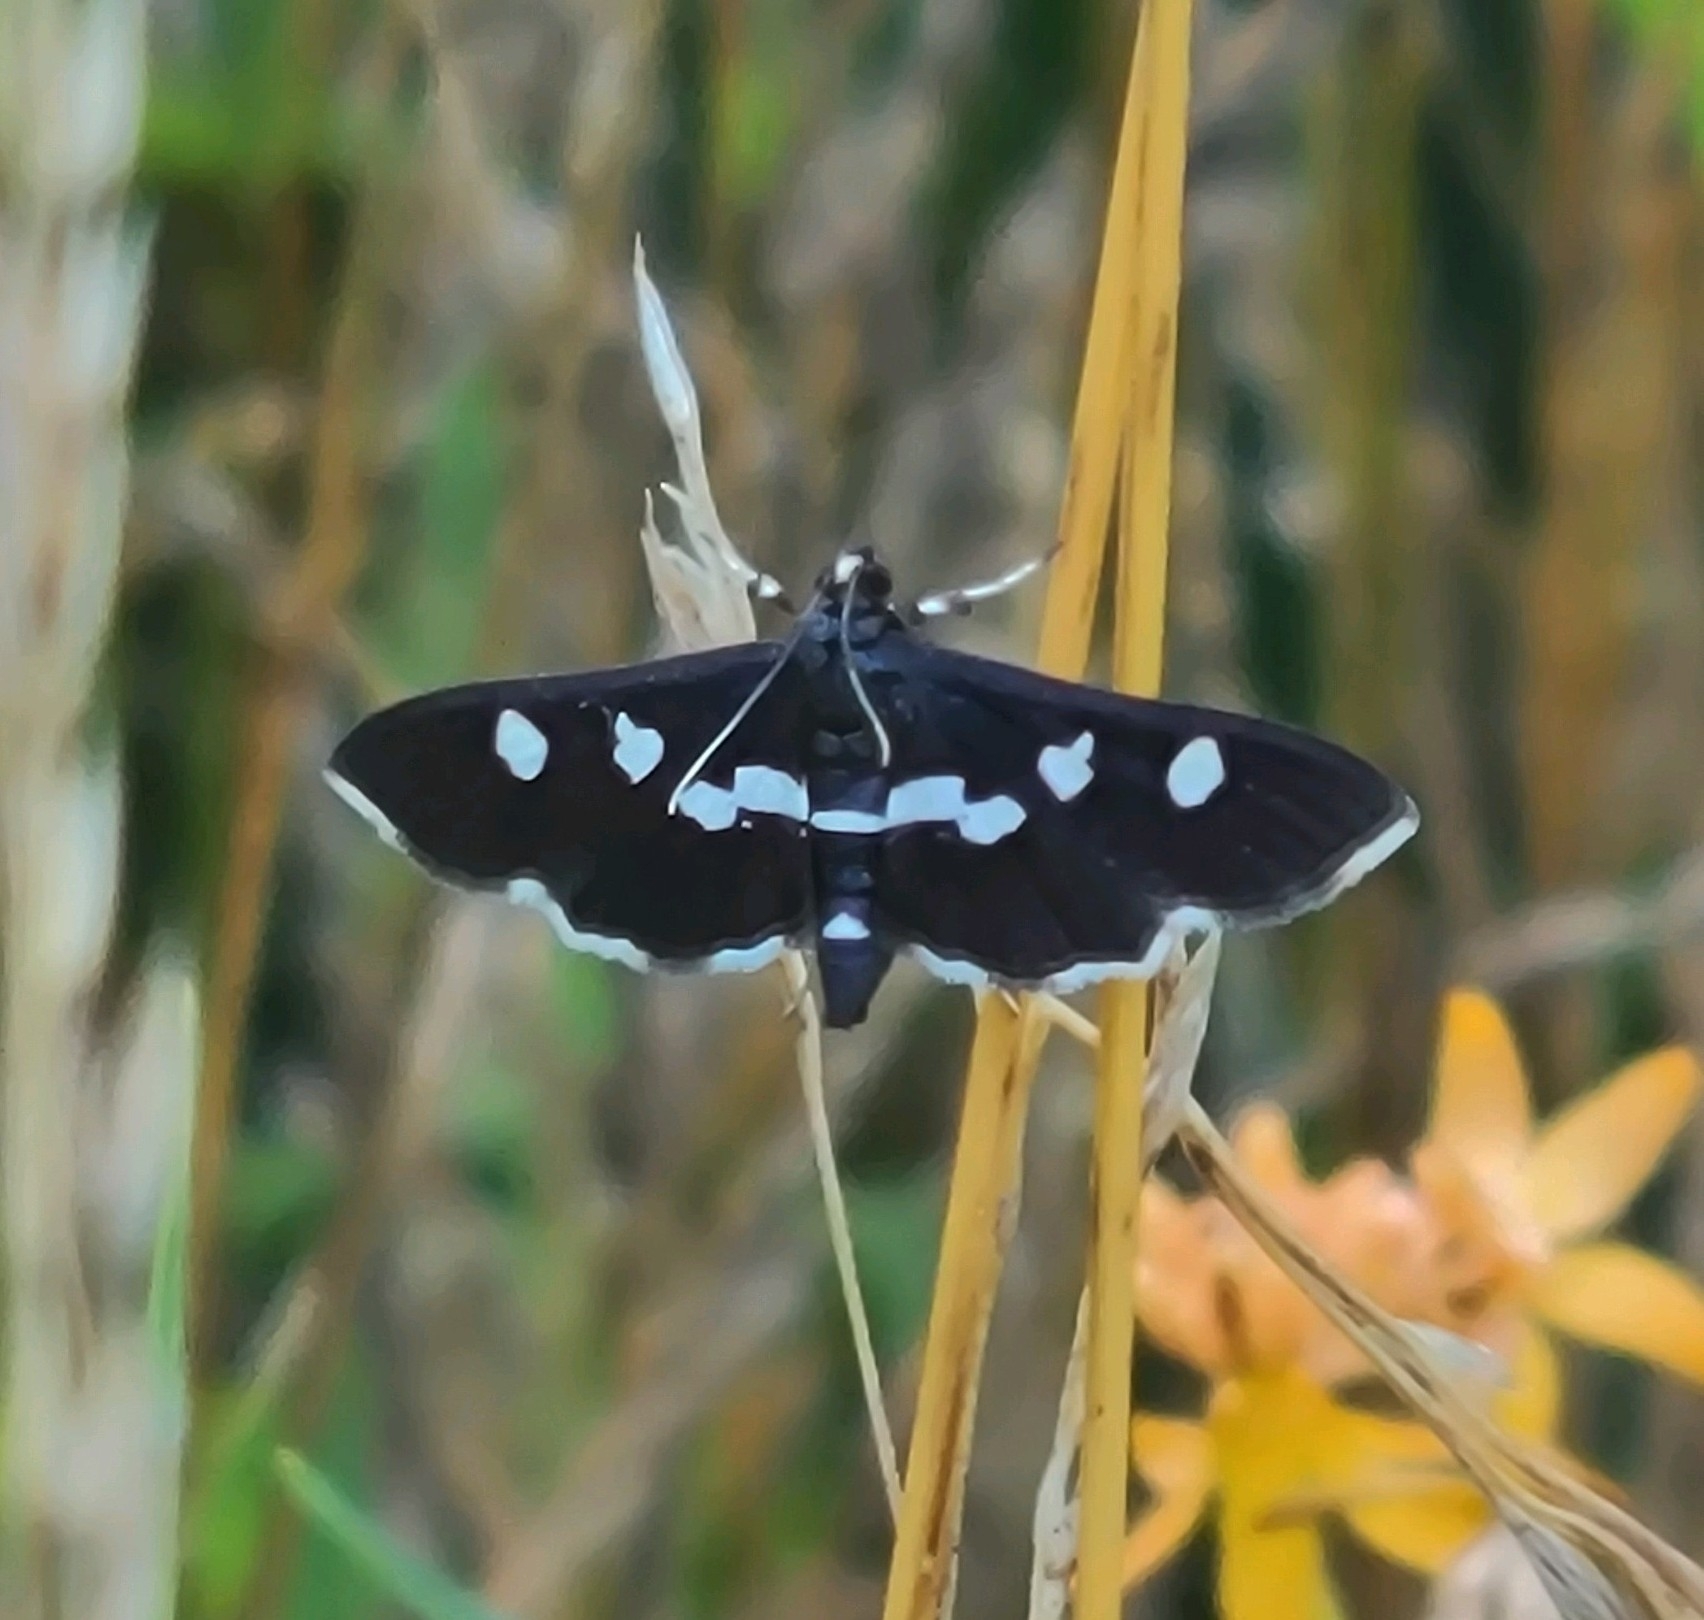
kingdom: Animalia
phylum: Arthropoda
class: Insecta
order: Lepidoptera
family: Crambidae
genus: Desmia
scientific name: Desmia
